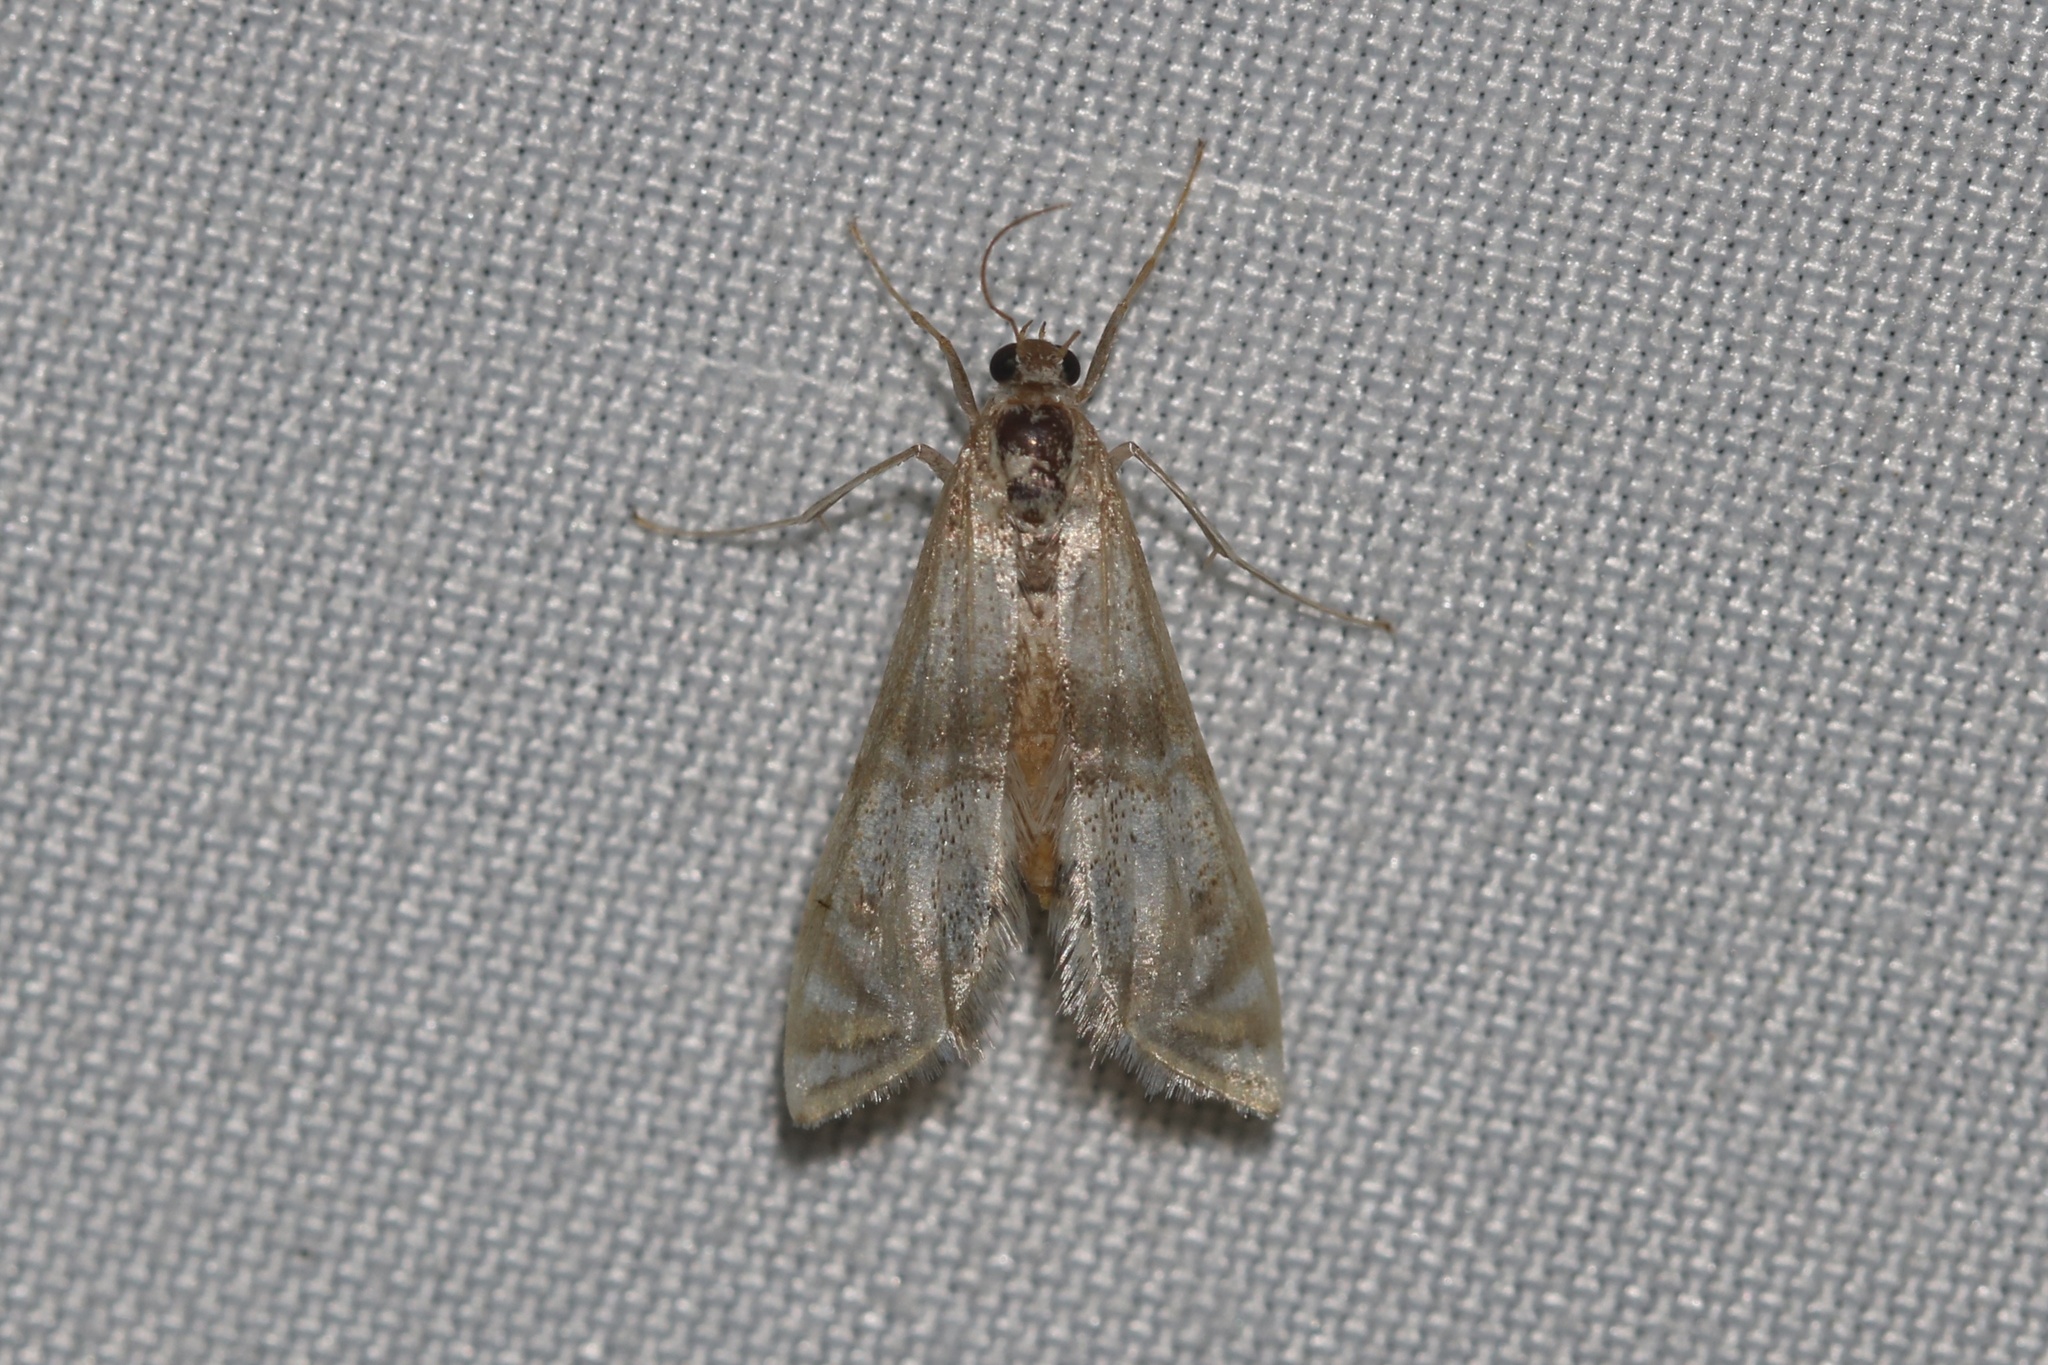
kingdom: Animalia
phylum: Arthropoda
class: Insecta
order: Lepidoptera
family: Crambidae
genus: Petrophila
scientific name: Petrophila bifascialis
